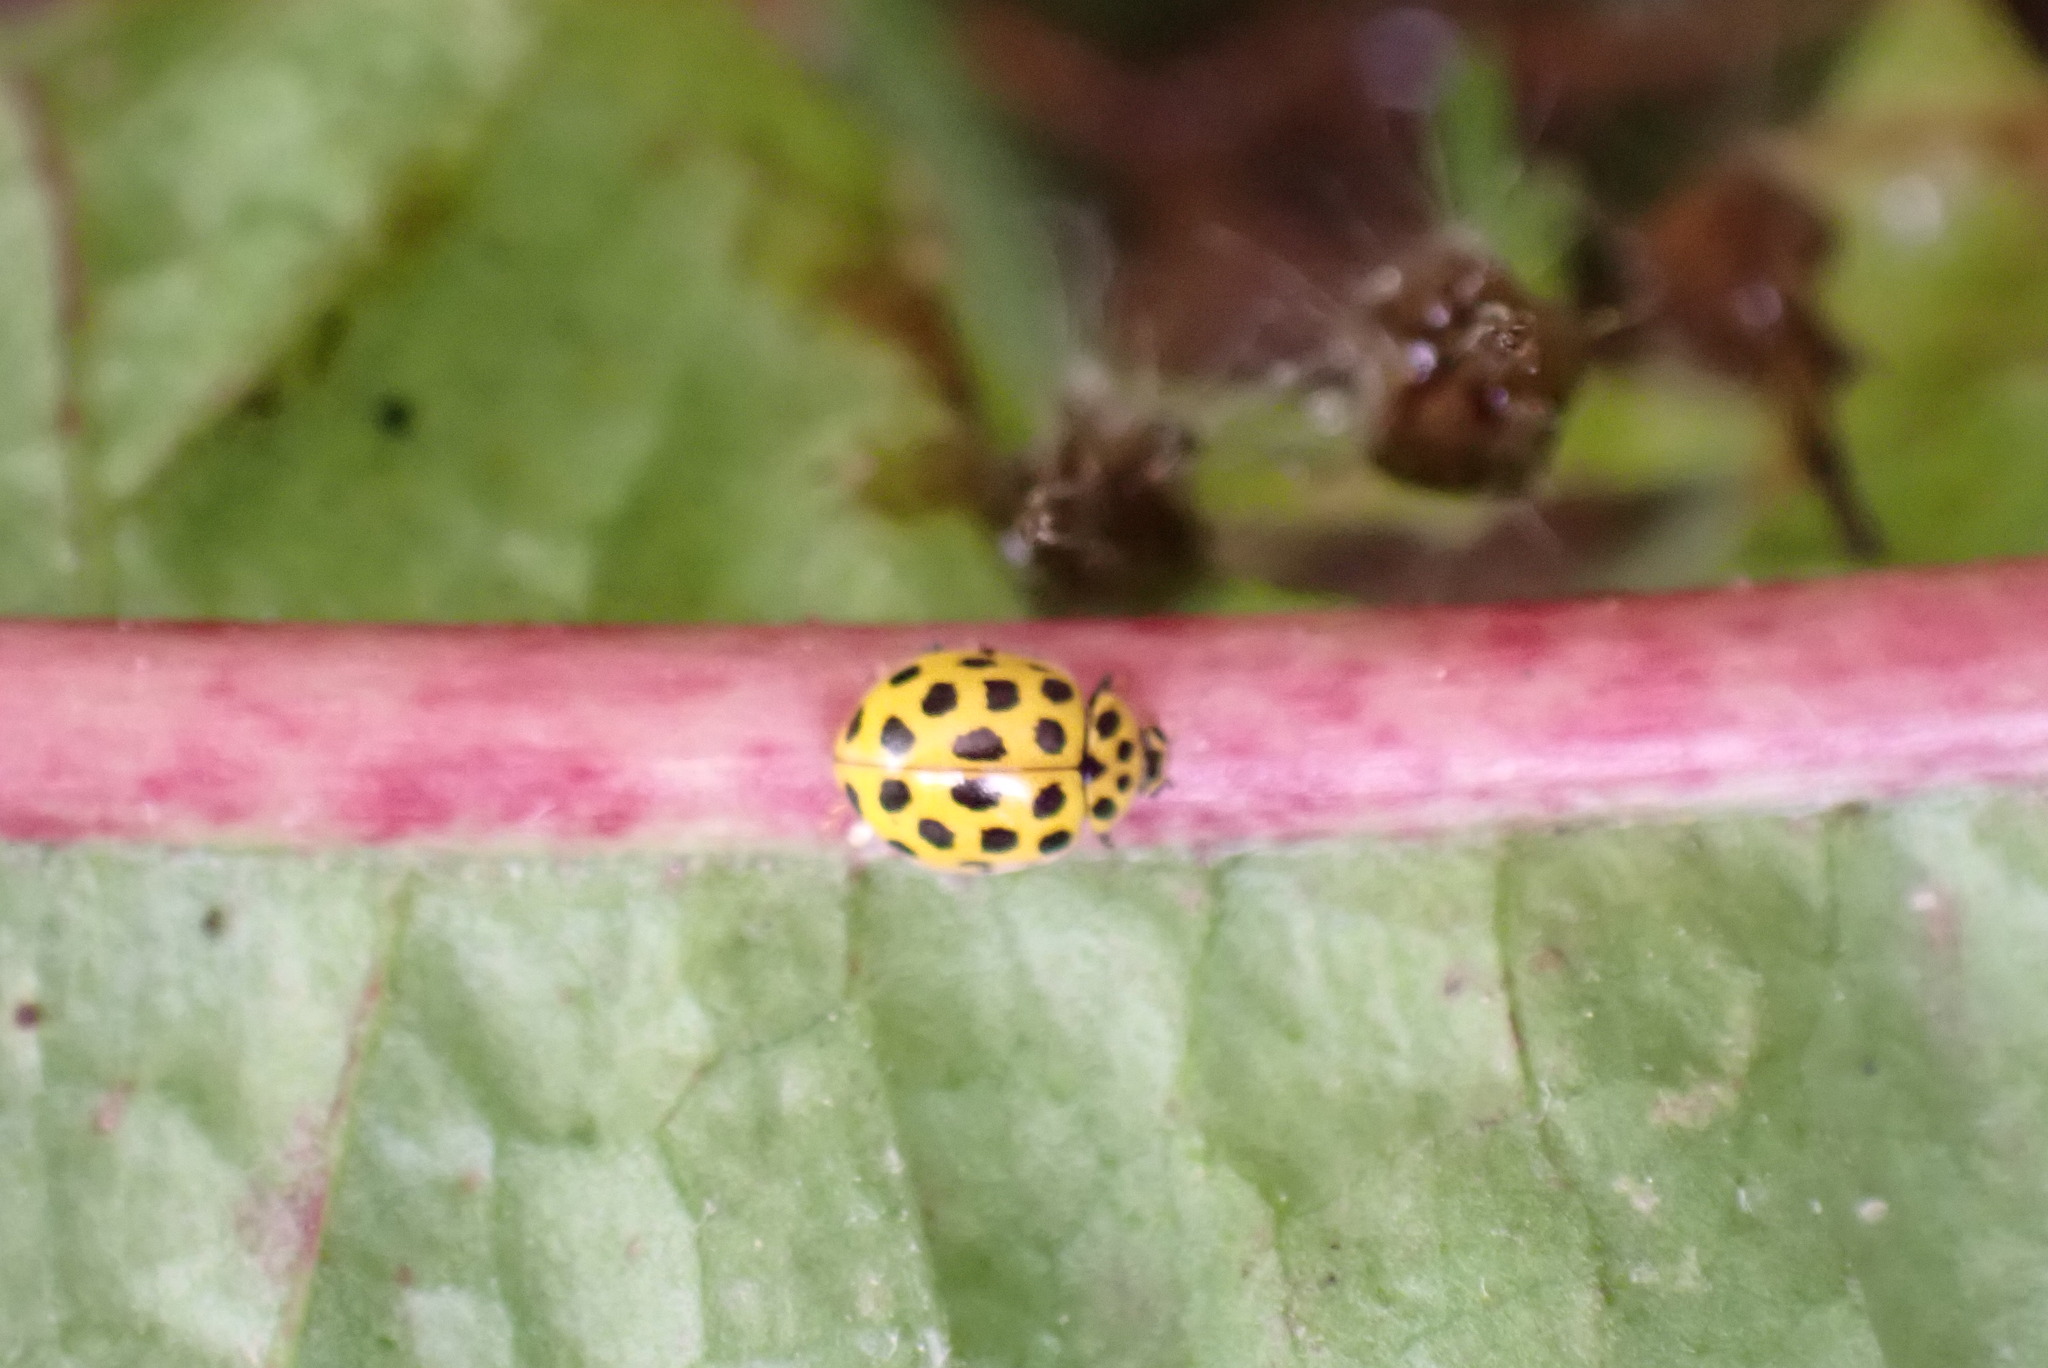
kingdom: Animalia
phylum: Arthropoda
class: Insecta
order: Coleoptera
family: Coccinellidae
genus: Psyllobora
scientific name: Psyllobora vigintiduopunctata
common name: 22-spot ladybird
